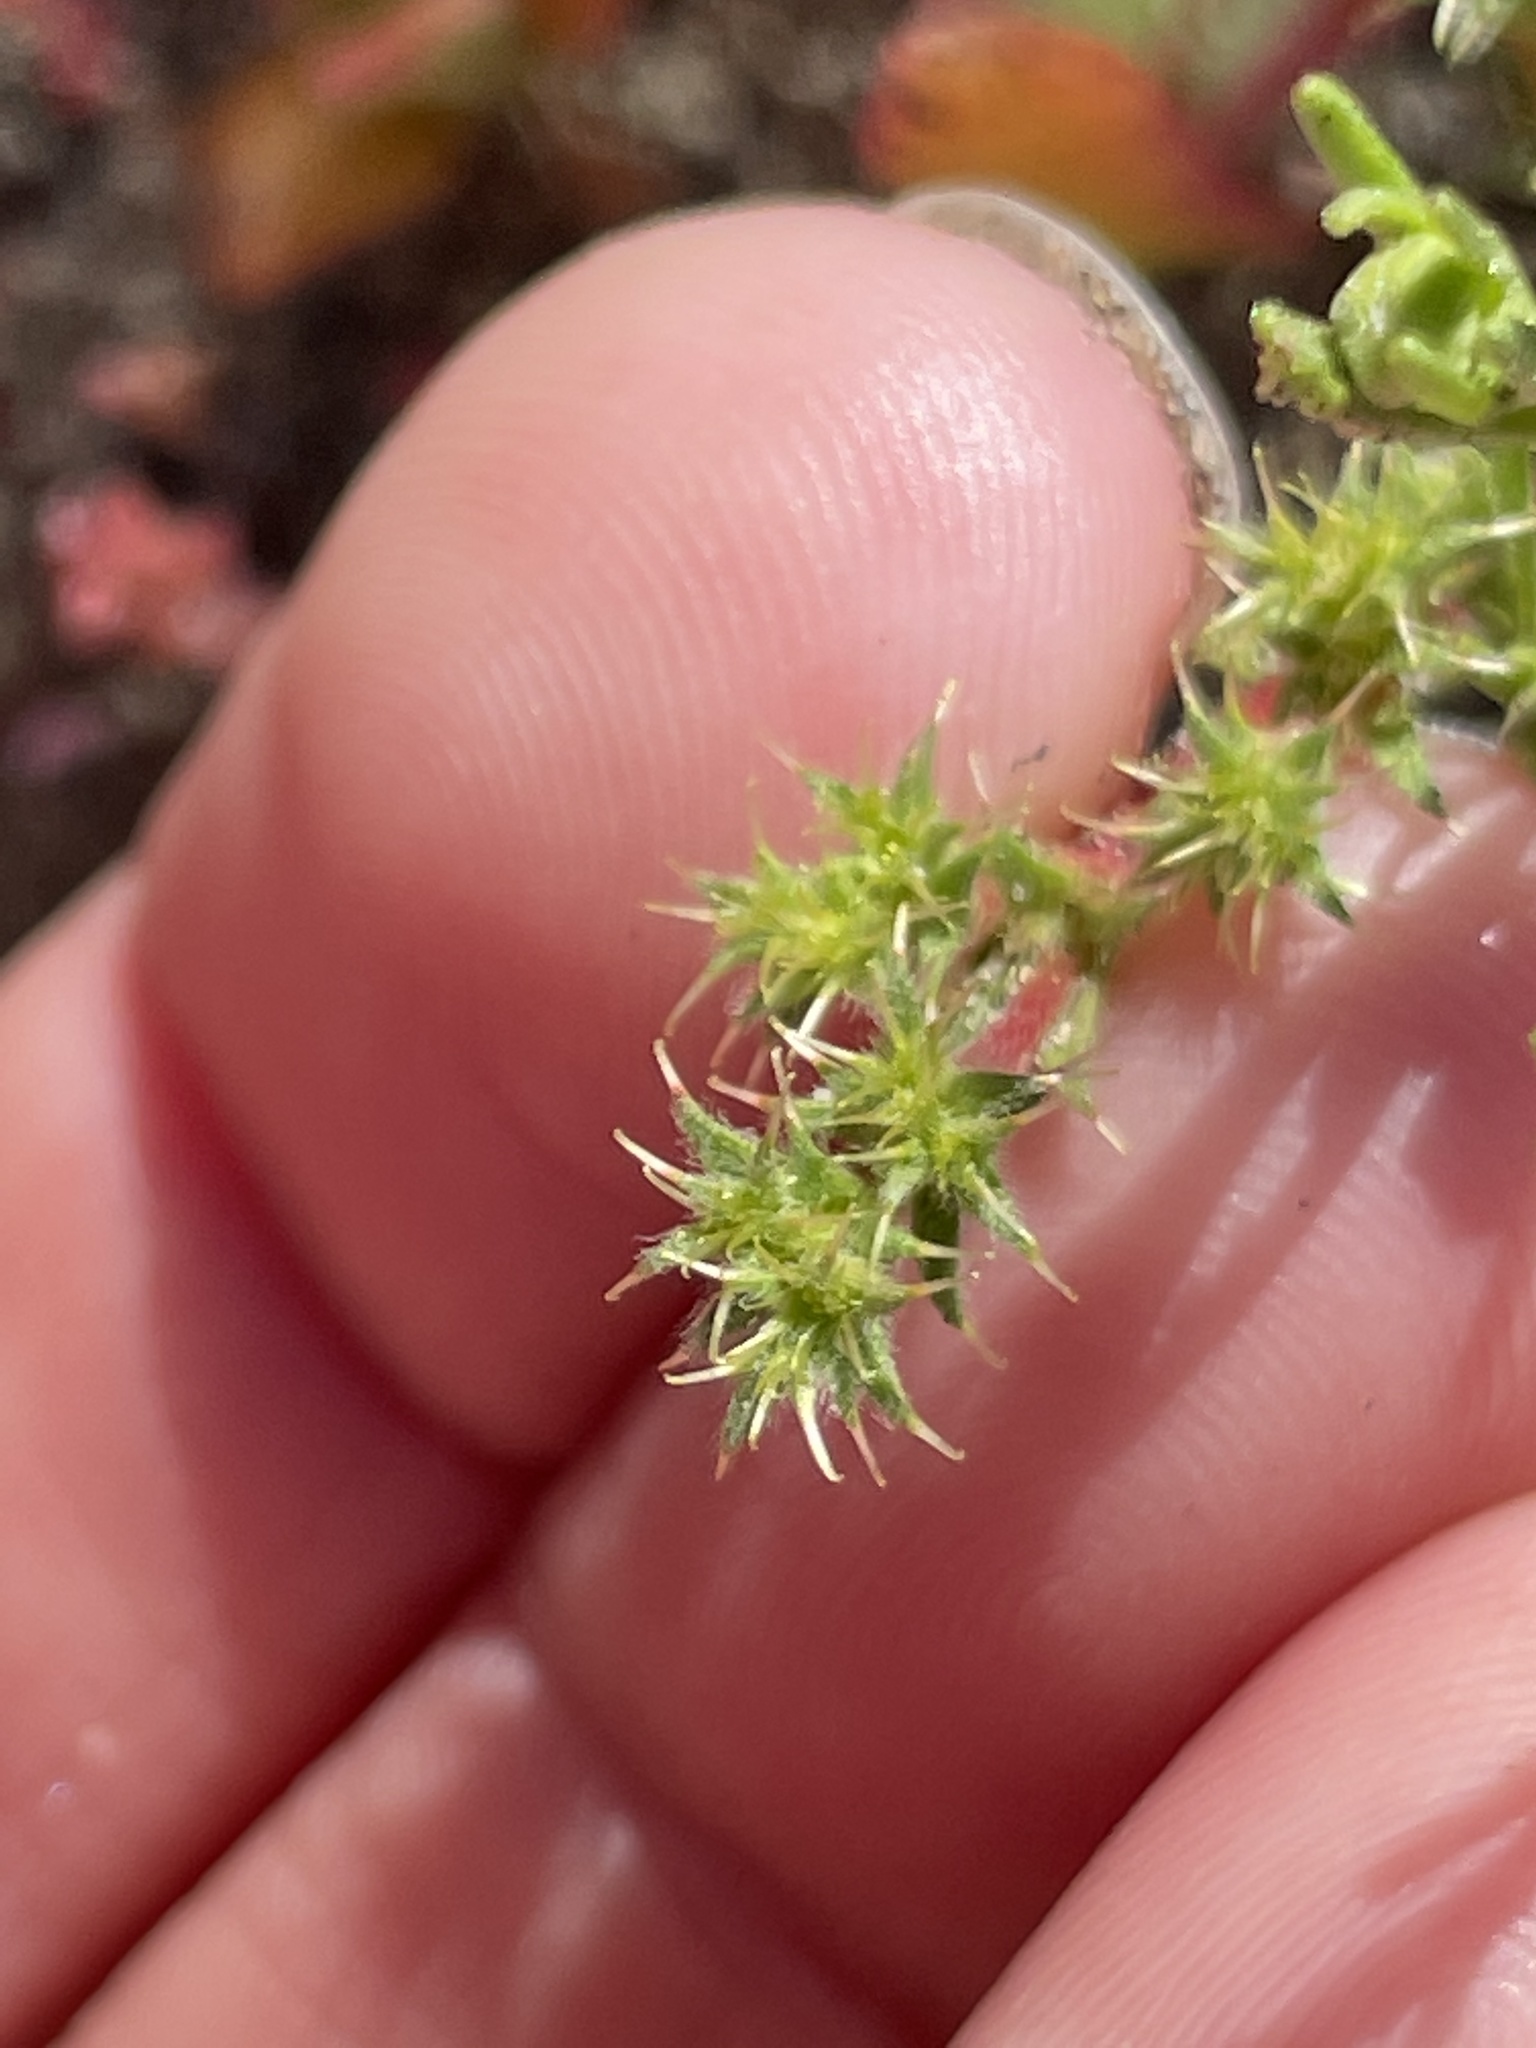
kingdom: Plantae
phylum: Tracheophyta
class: Magnoliopsida
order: Caryophyllales
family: Polygonaceae
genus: Lastarriaea
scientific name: Lastarriaea coriacea
